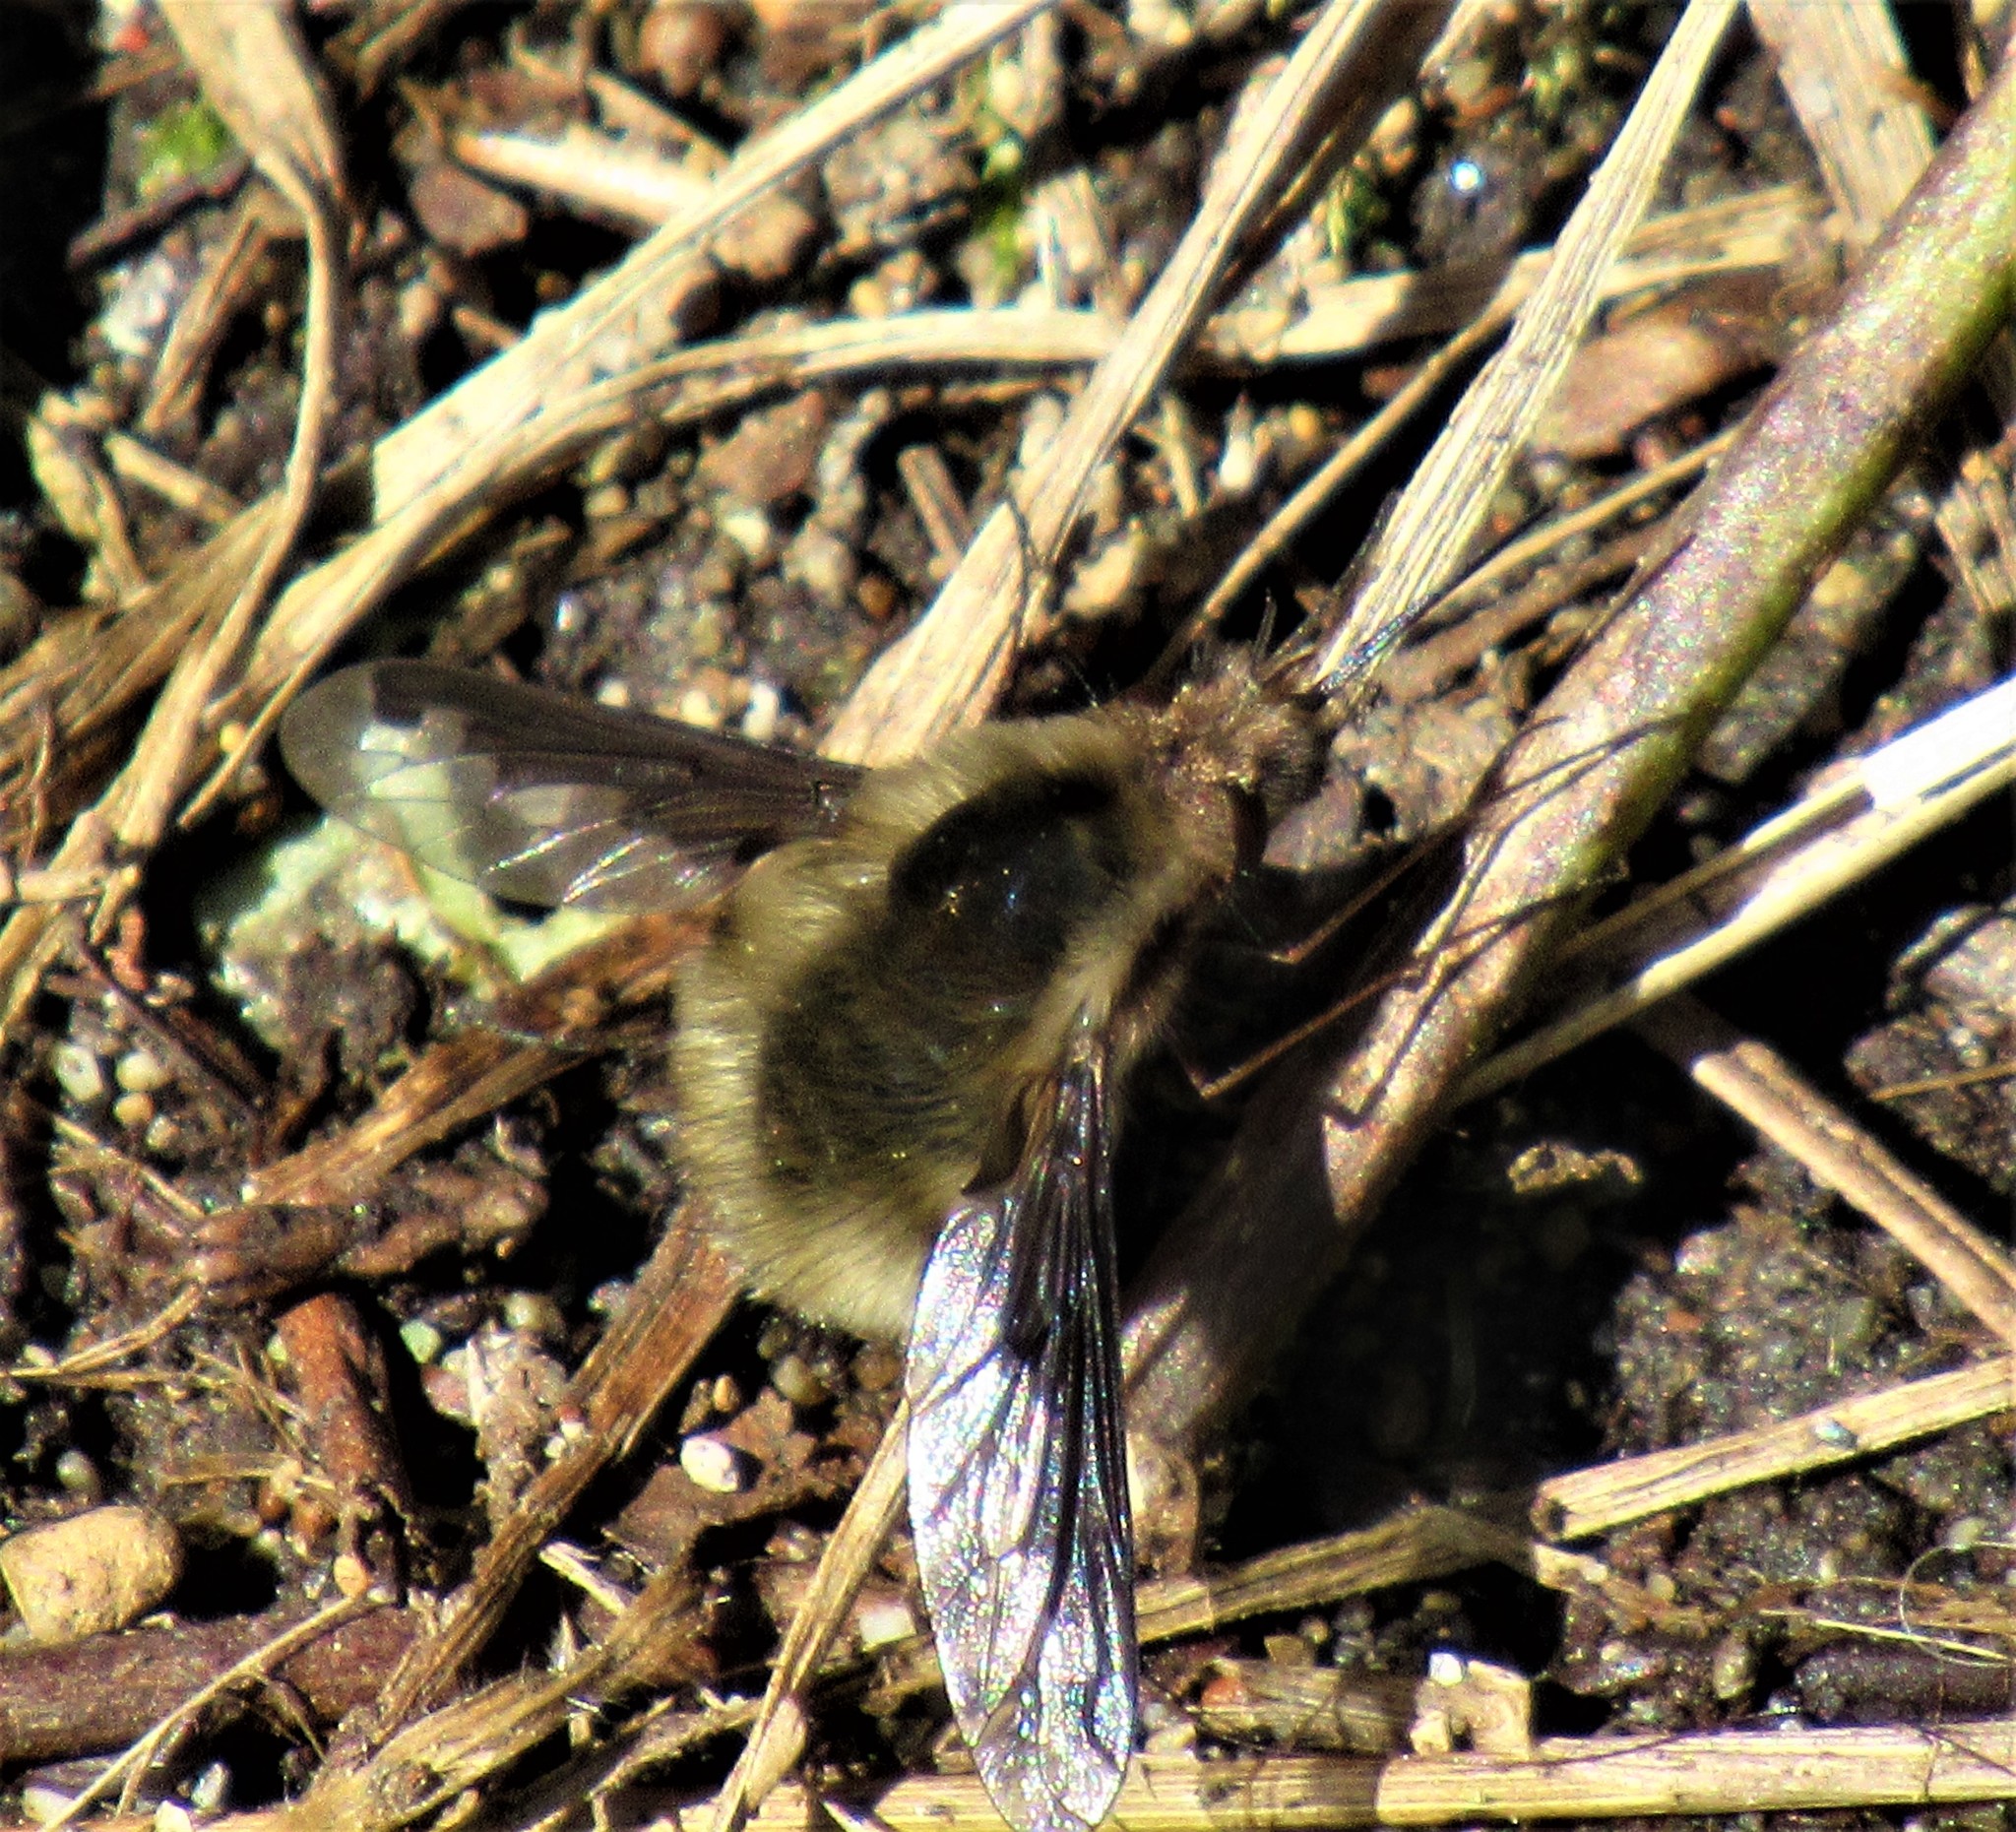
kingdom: Animalia
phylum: Arthropoda
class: Insecta
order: Diptera
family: Bombyliidae
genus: Bombylius
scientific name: Bombylius major
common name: Bee fly
